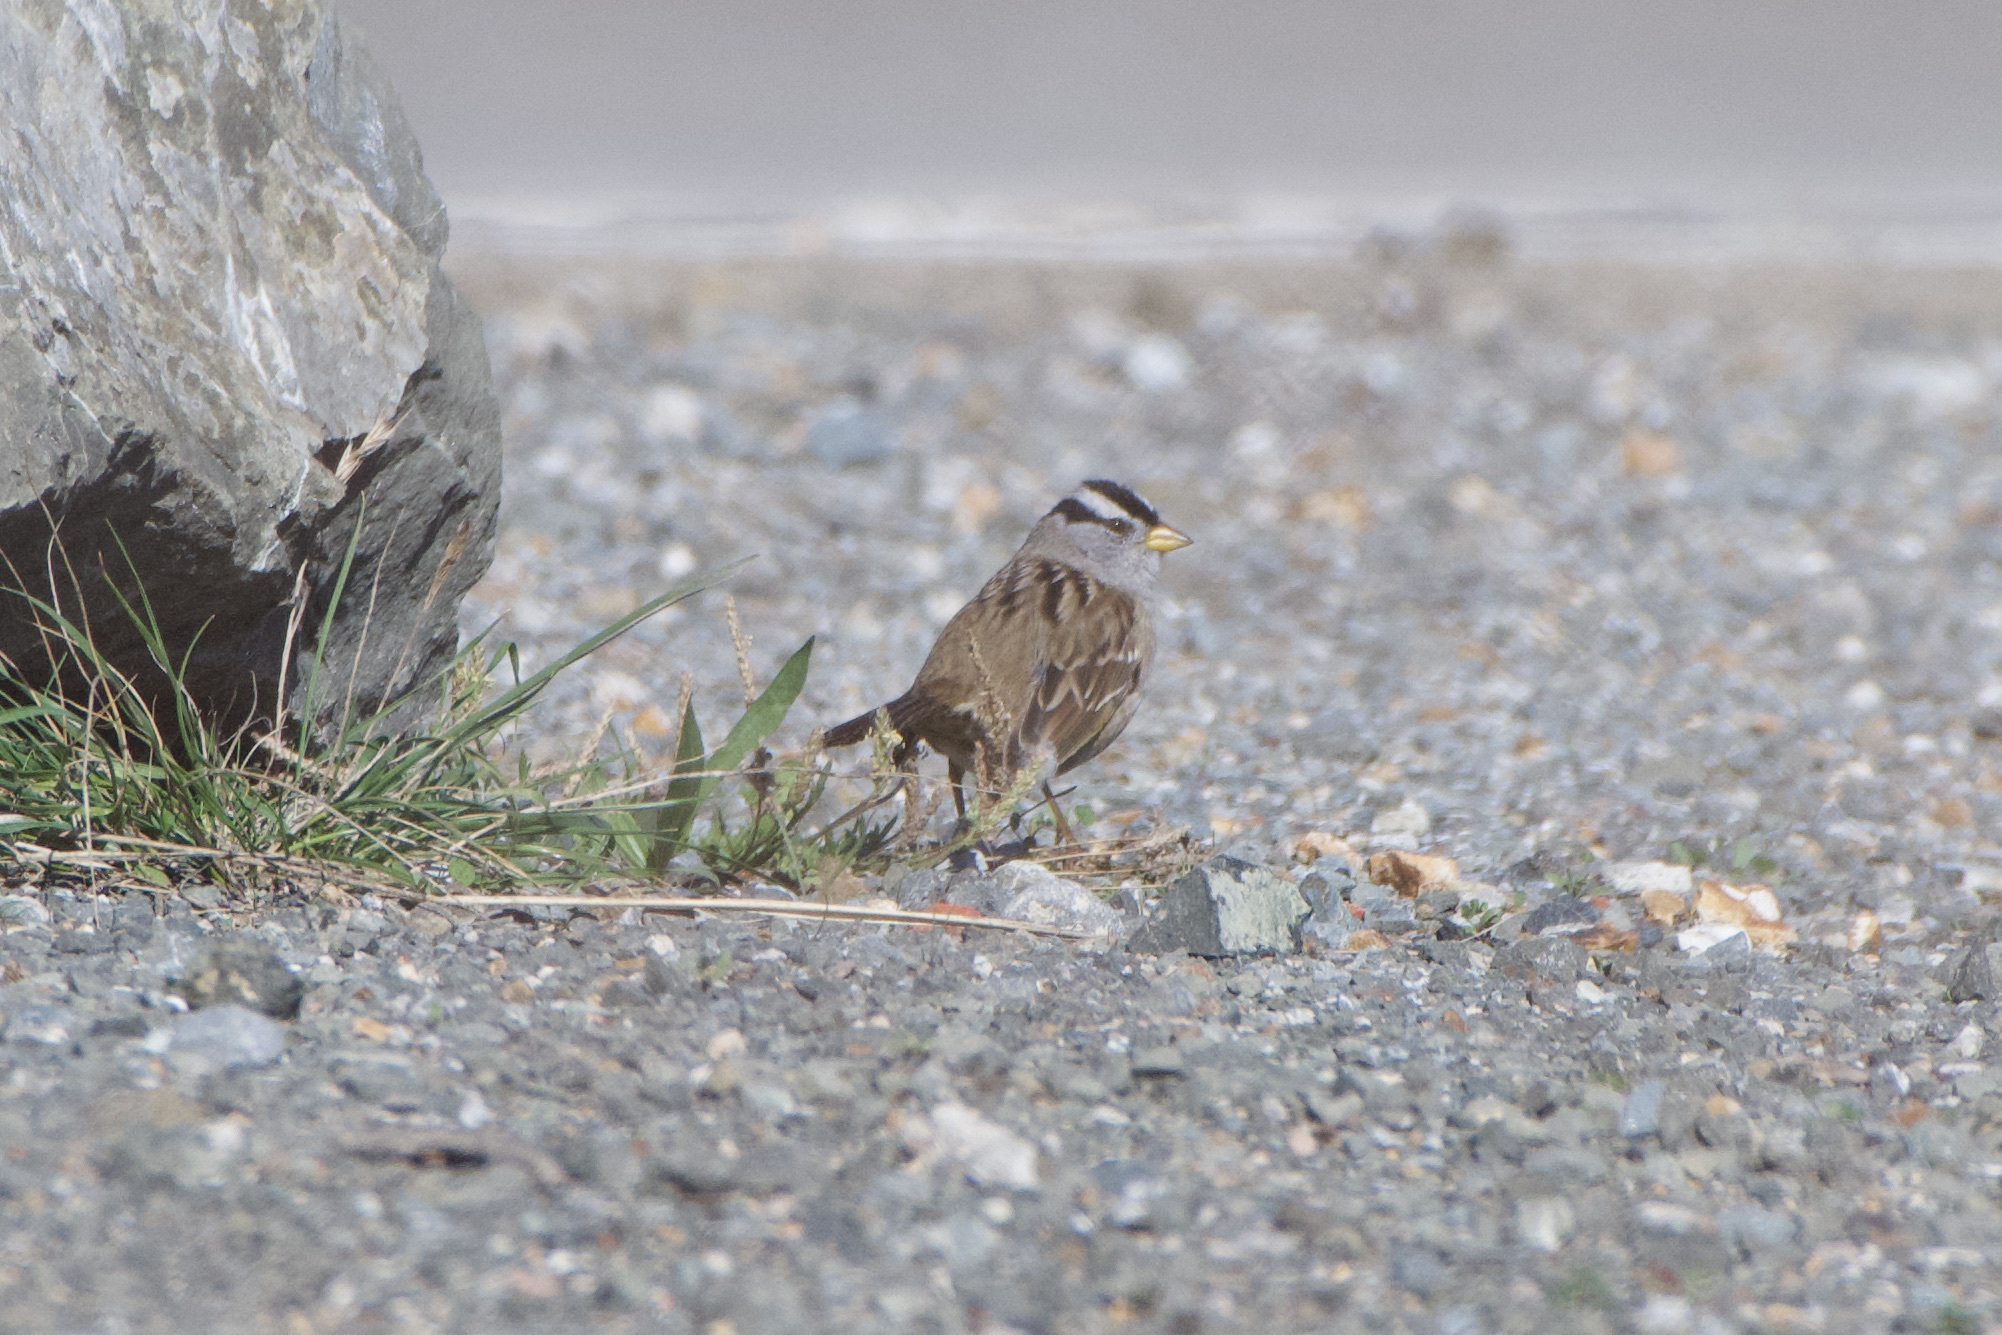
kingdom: Animalia
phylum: Chordata
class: Aves
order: Passeriformes
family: Passerellidae
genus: Zonotrichia
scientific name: Zonotrichia leucophrys
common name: White-crowned sparrow
